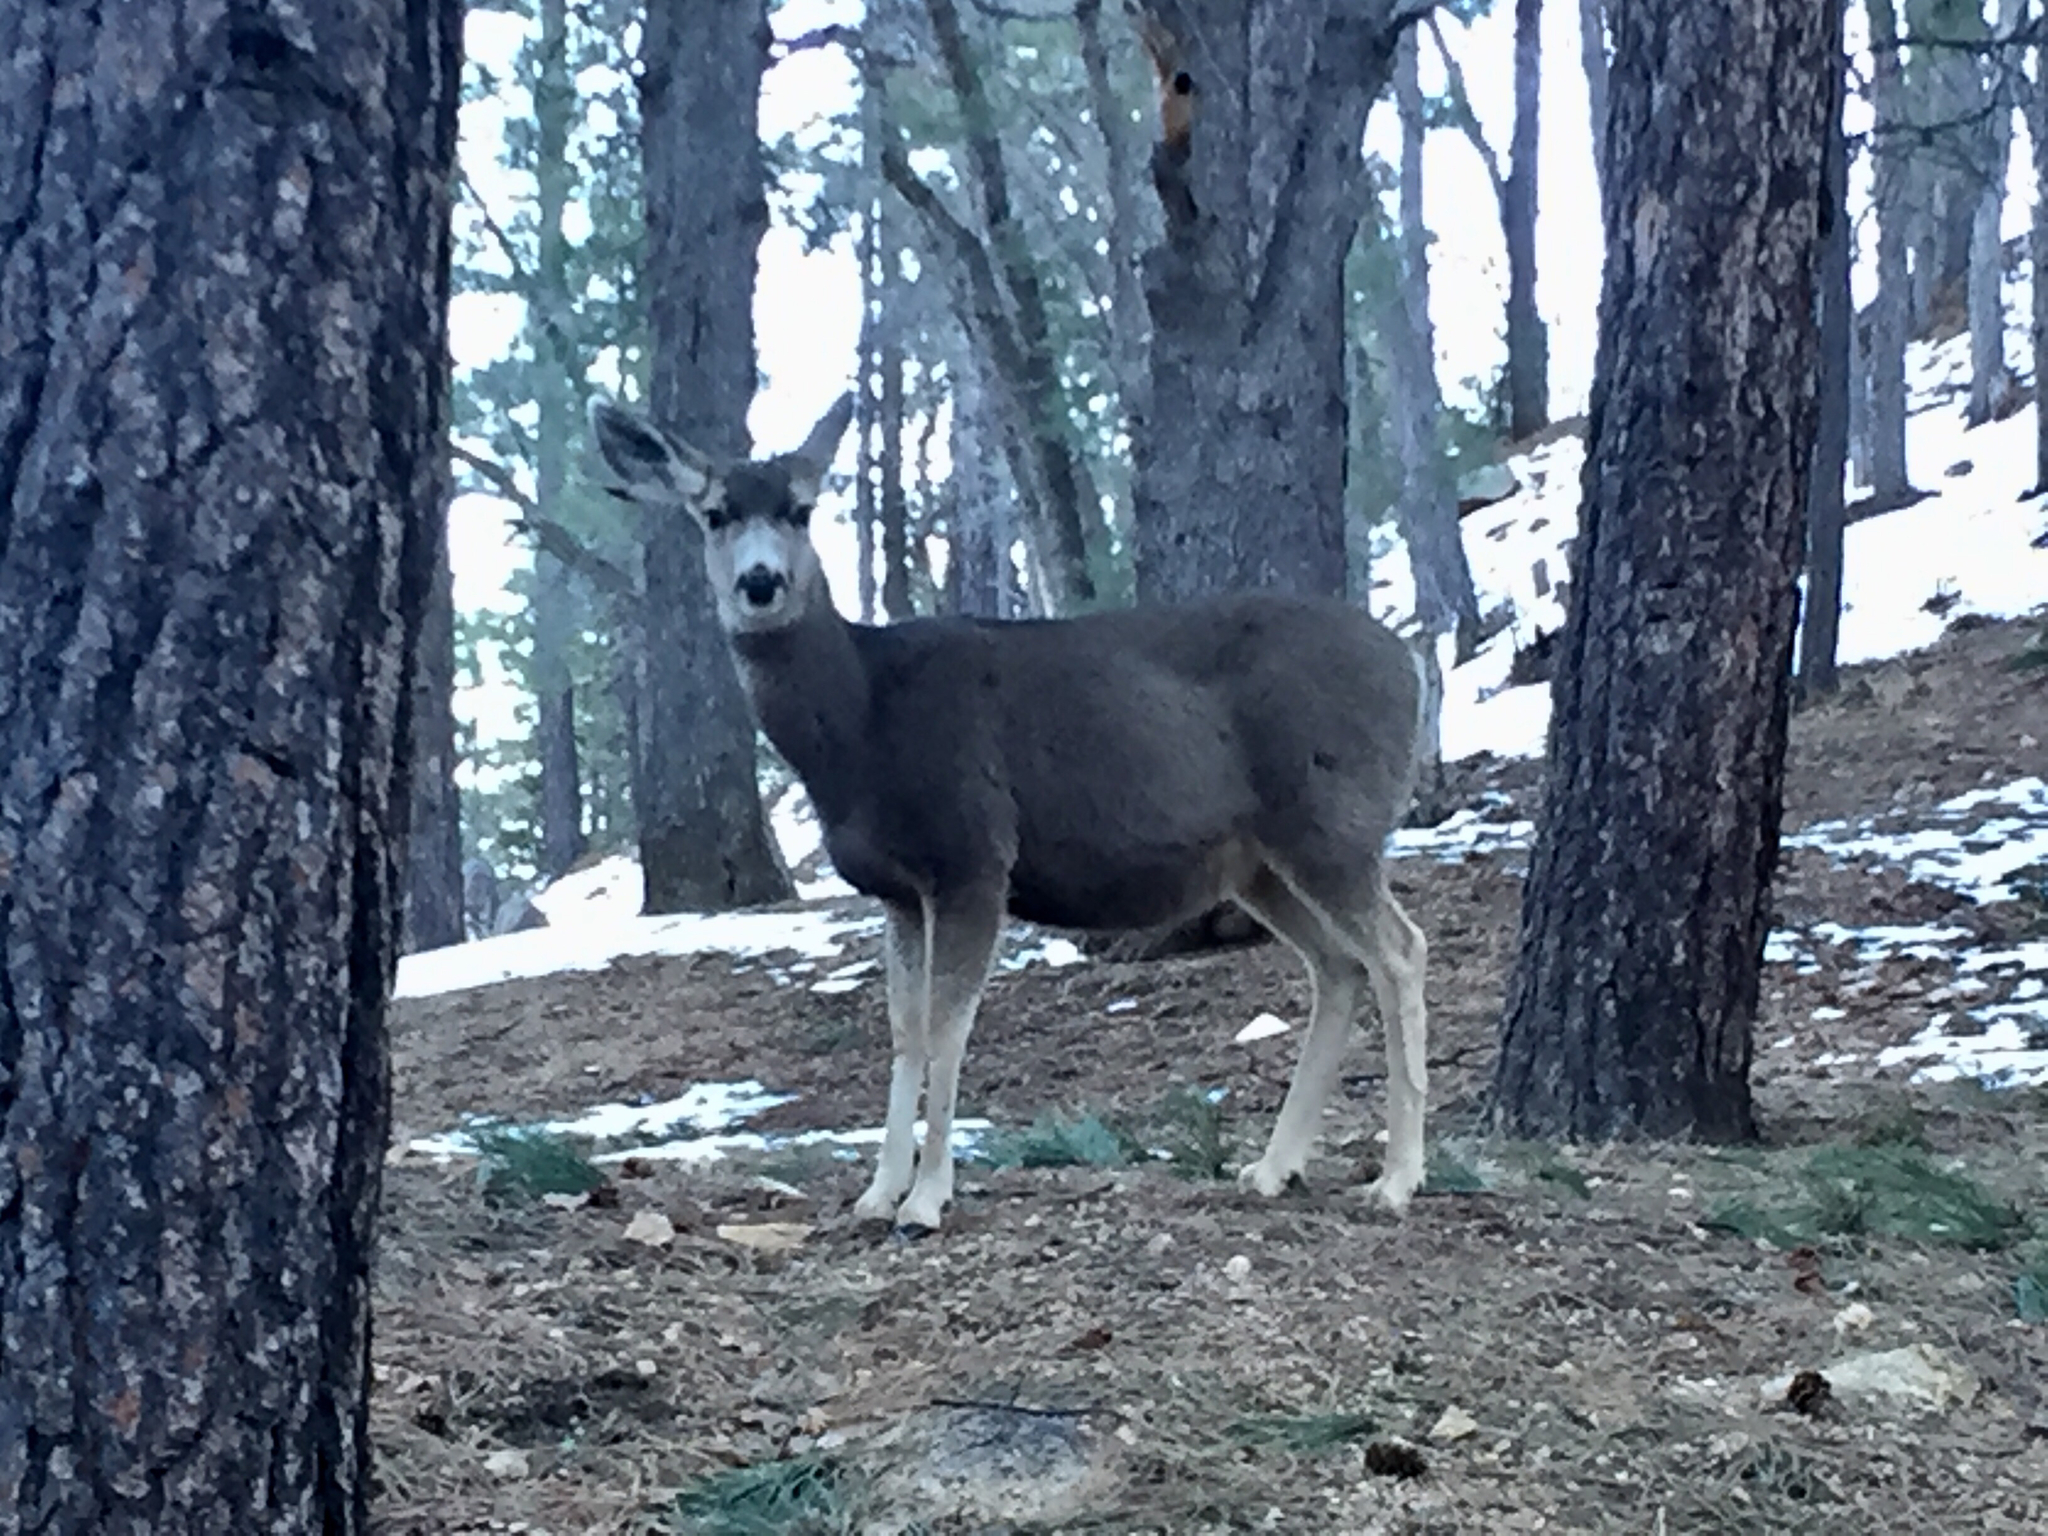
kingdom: Animalia
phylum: Chordata
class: Mammalia
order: Artiodactyla
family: Cervidae
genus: Odocoileus
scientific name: Odocoileus hemionus
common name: Mule deer
